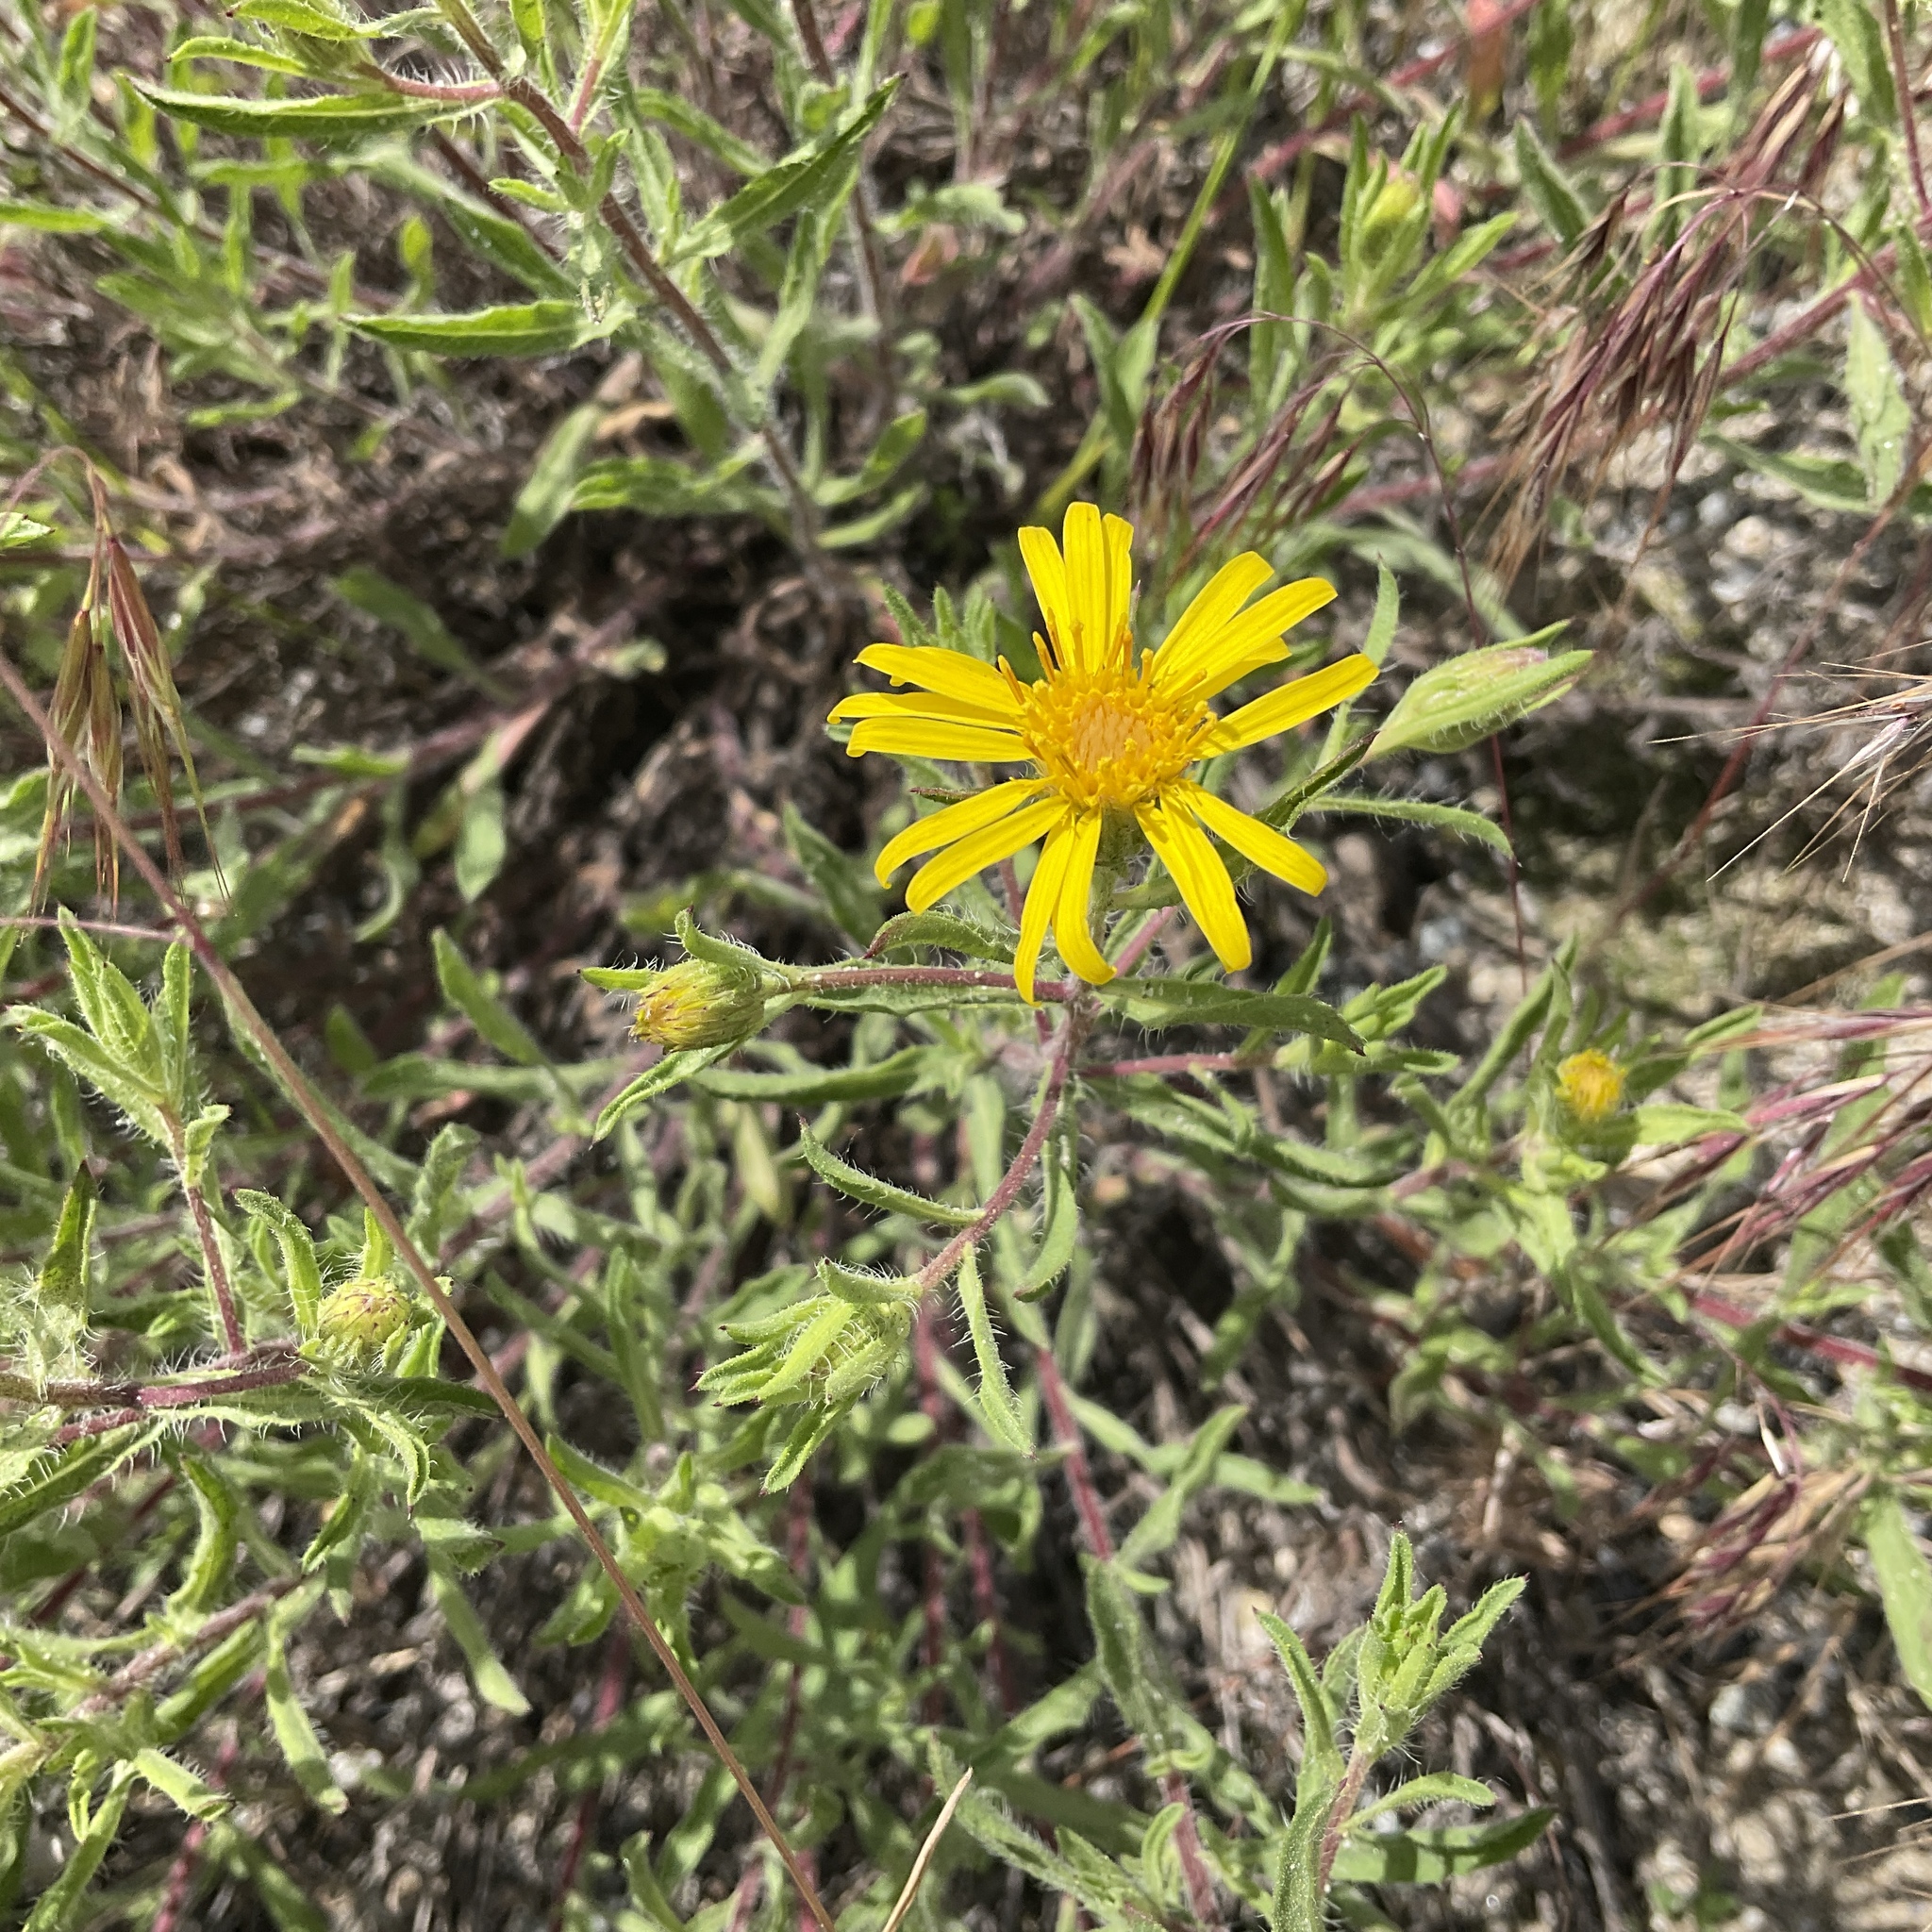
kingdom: Plantae
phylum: Tracheophyta
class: Magnoliopsida
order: Asterales
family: Asteraceae
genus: Heterotheca
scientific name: Heterotheca villosa
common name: Hairy false goldenaster
